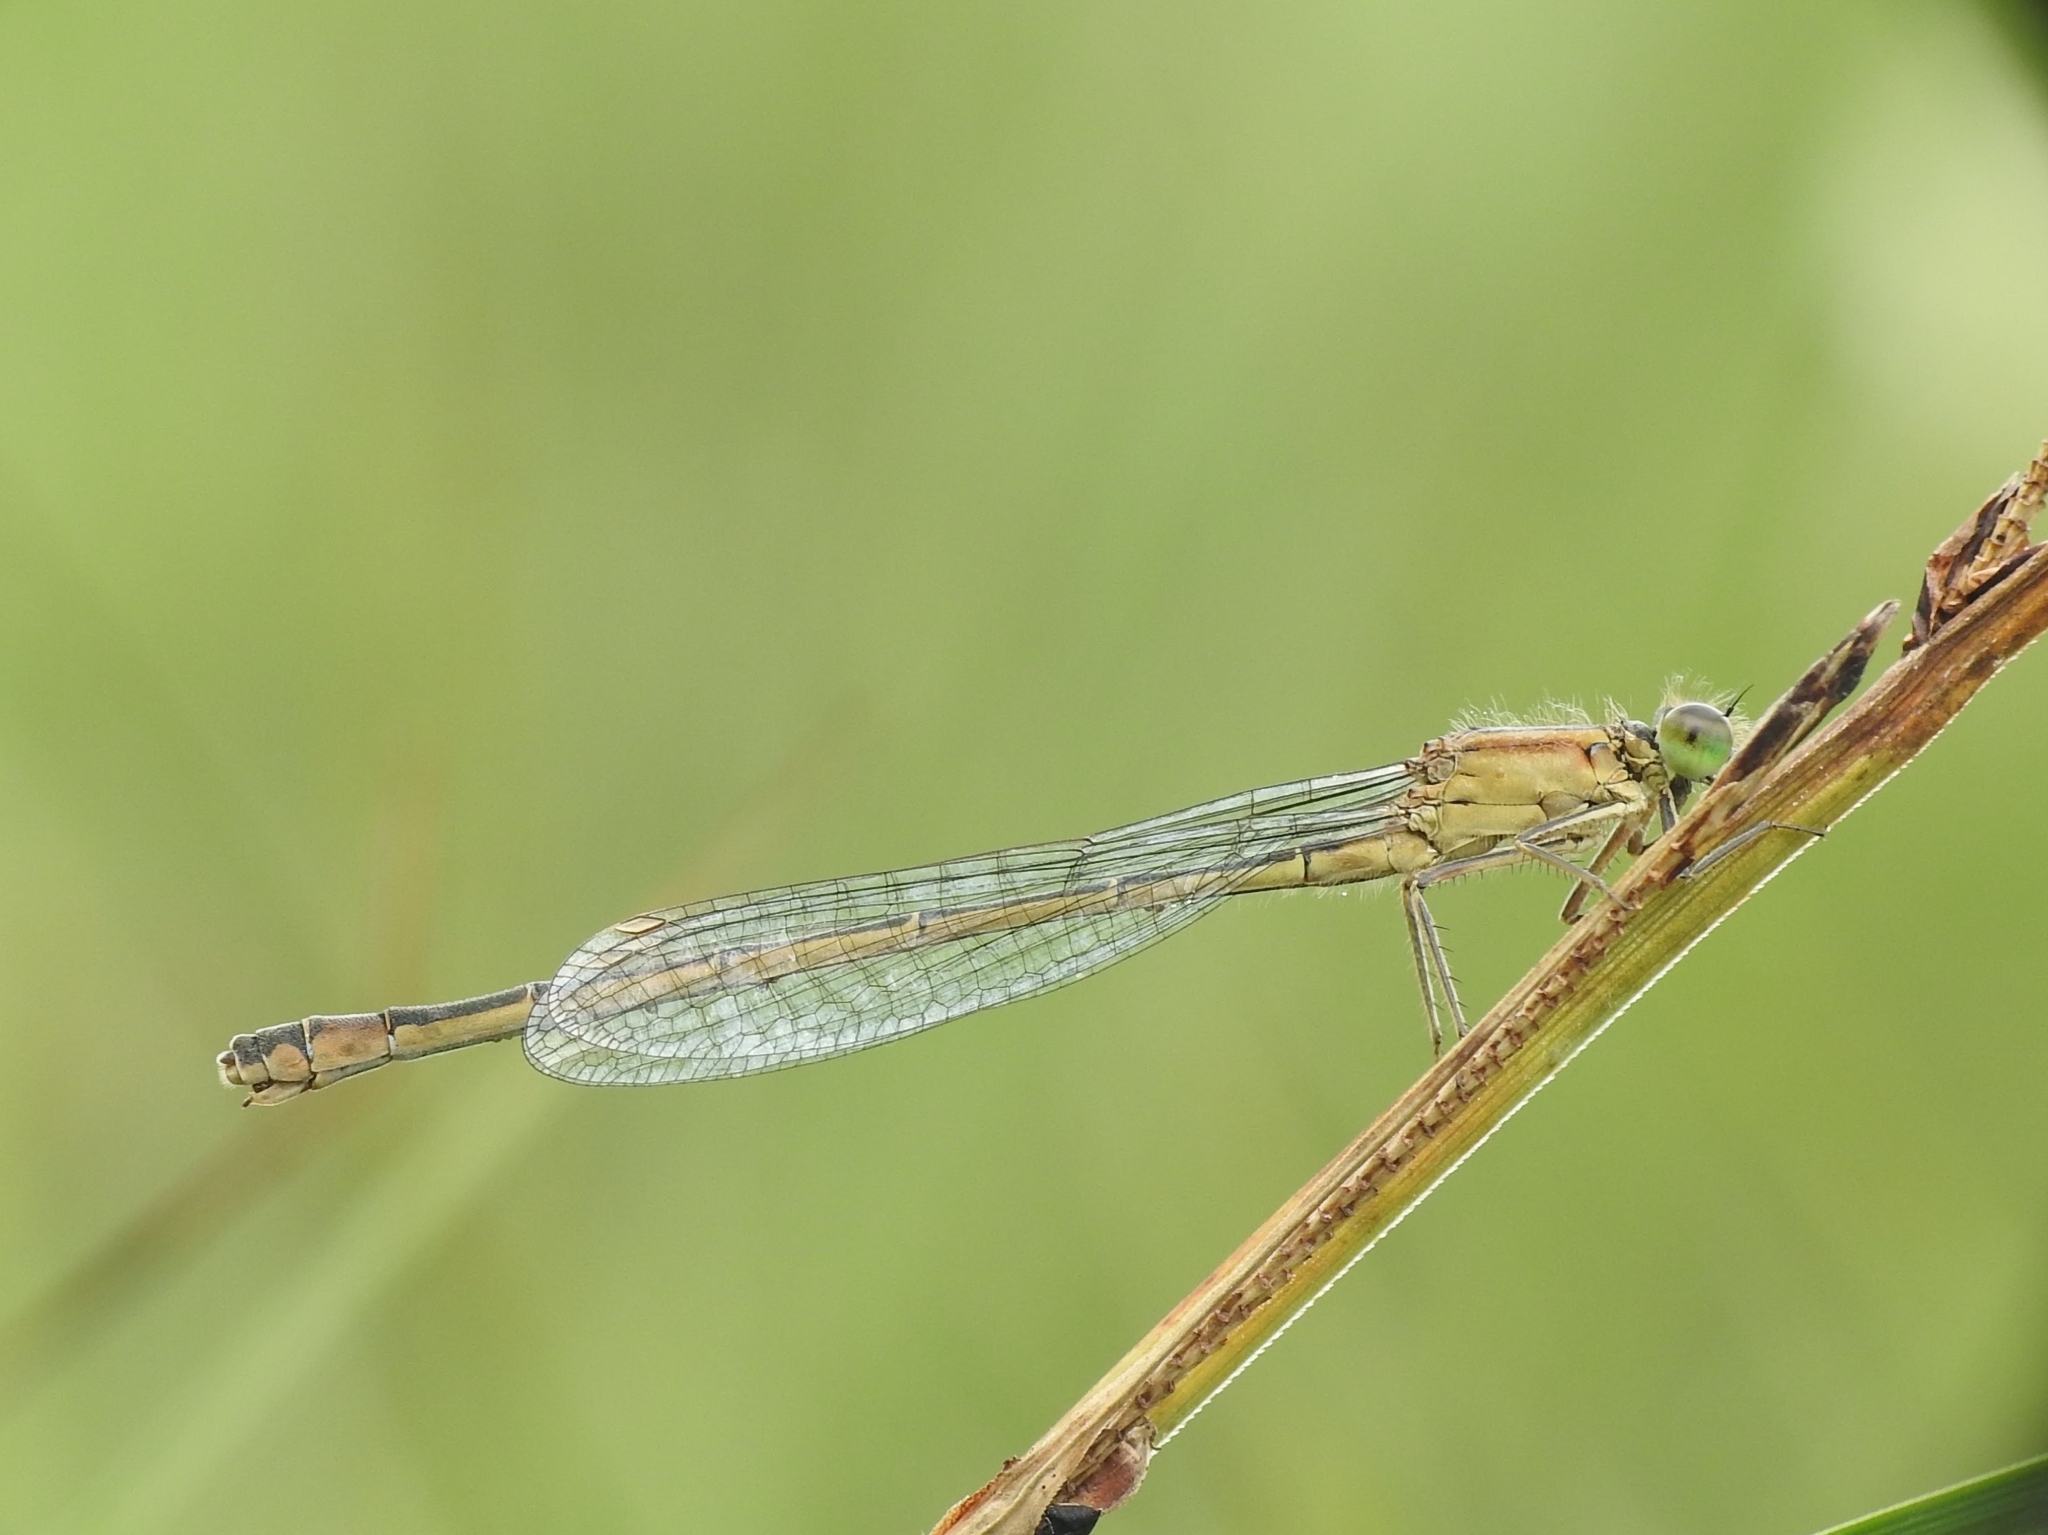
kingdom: Animalia
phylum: Arthropoda
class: Insecta
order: Odonata
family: Coenagrionidae
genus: Ischnura
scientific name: Ischnura elegans
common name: Blue-tailed damselfly
